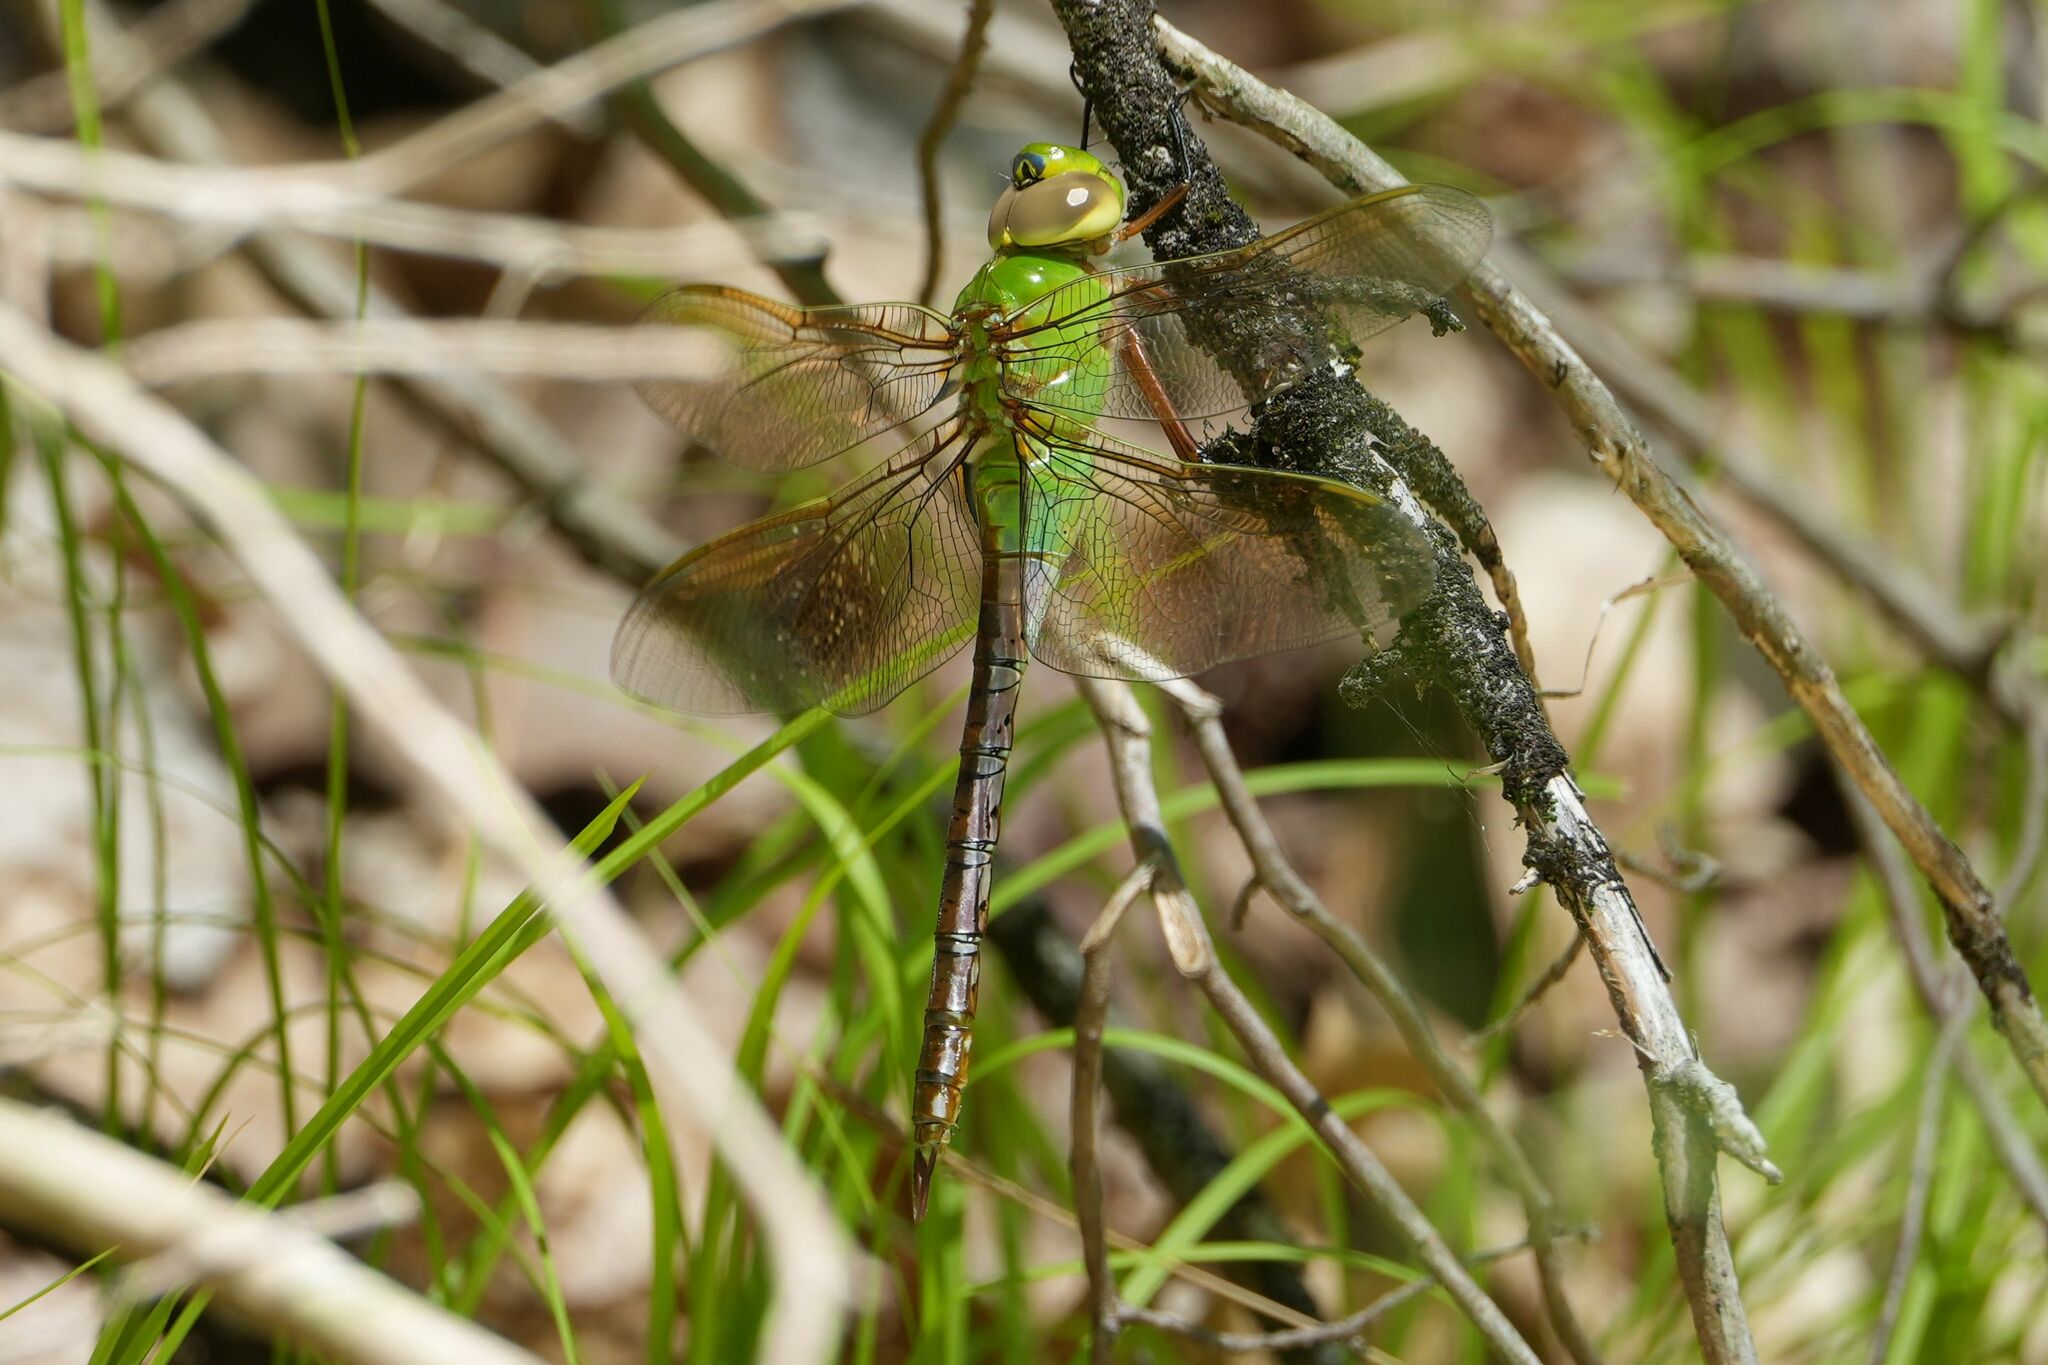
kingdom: Animalia
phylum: Arthropoda
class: Insecta
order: Odonata
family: Aeshnidae
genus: Anax
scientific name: Anax junius
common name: Common green darner
